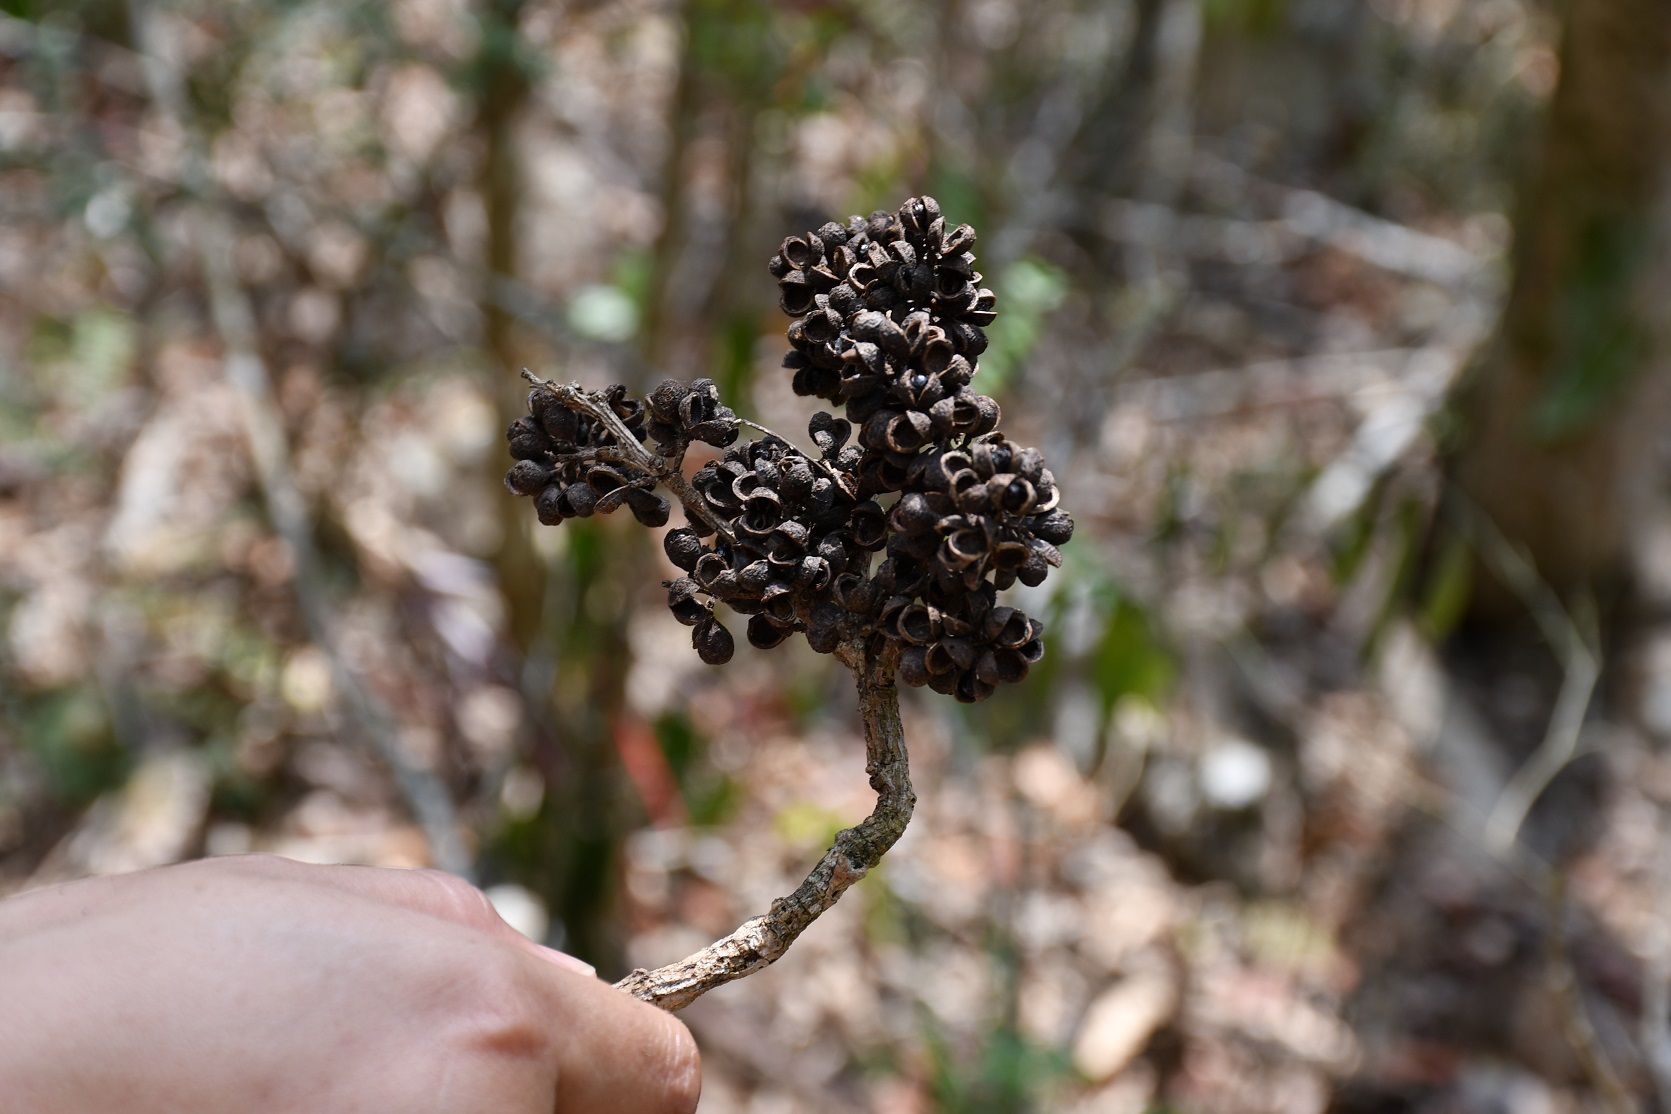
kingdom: Plantae
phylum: Tracheophyta
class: Magnoliopsida
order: Sapindales
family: Rutaceae
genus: Zanthoxylum
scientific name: Zanthoxylum quassiifolium
